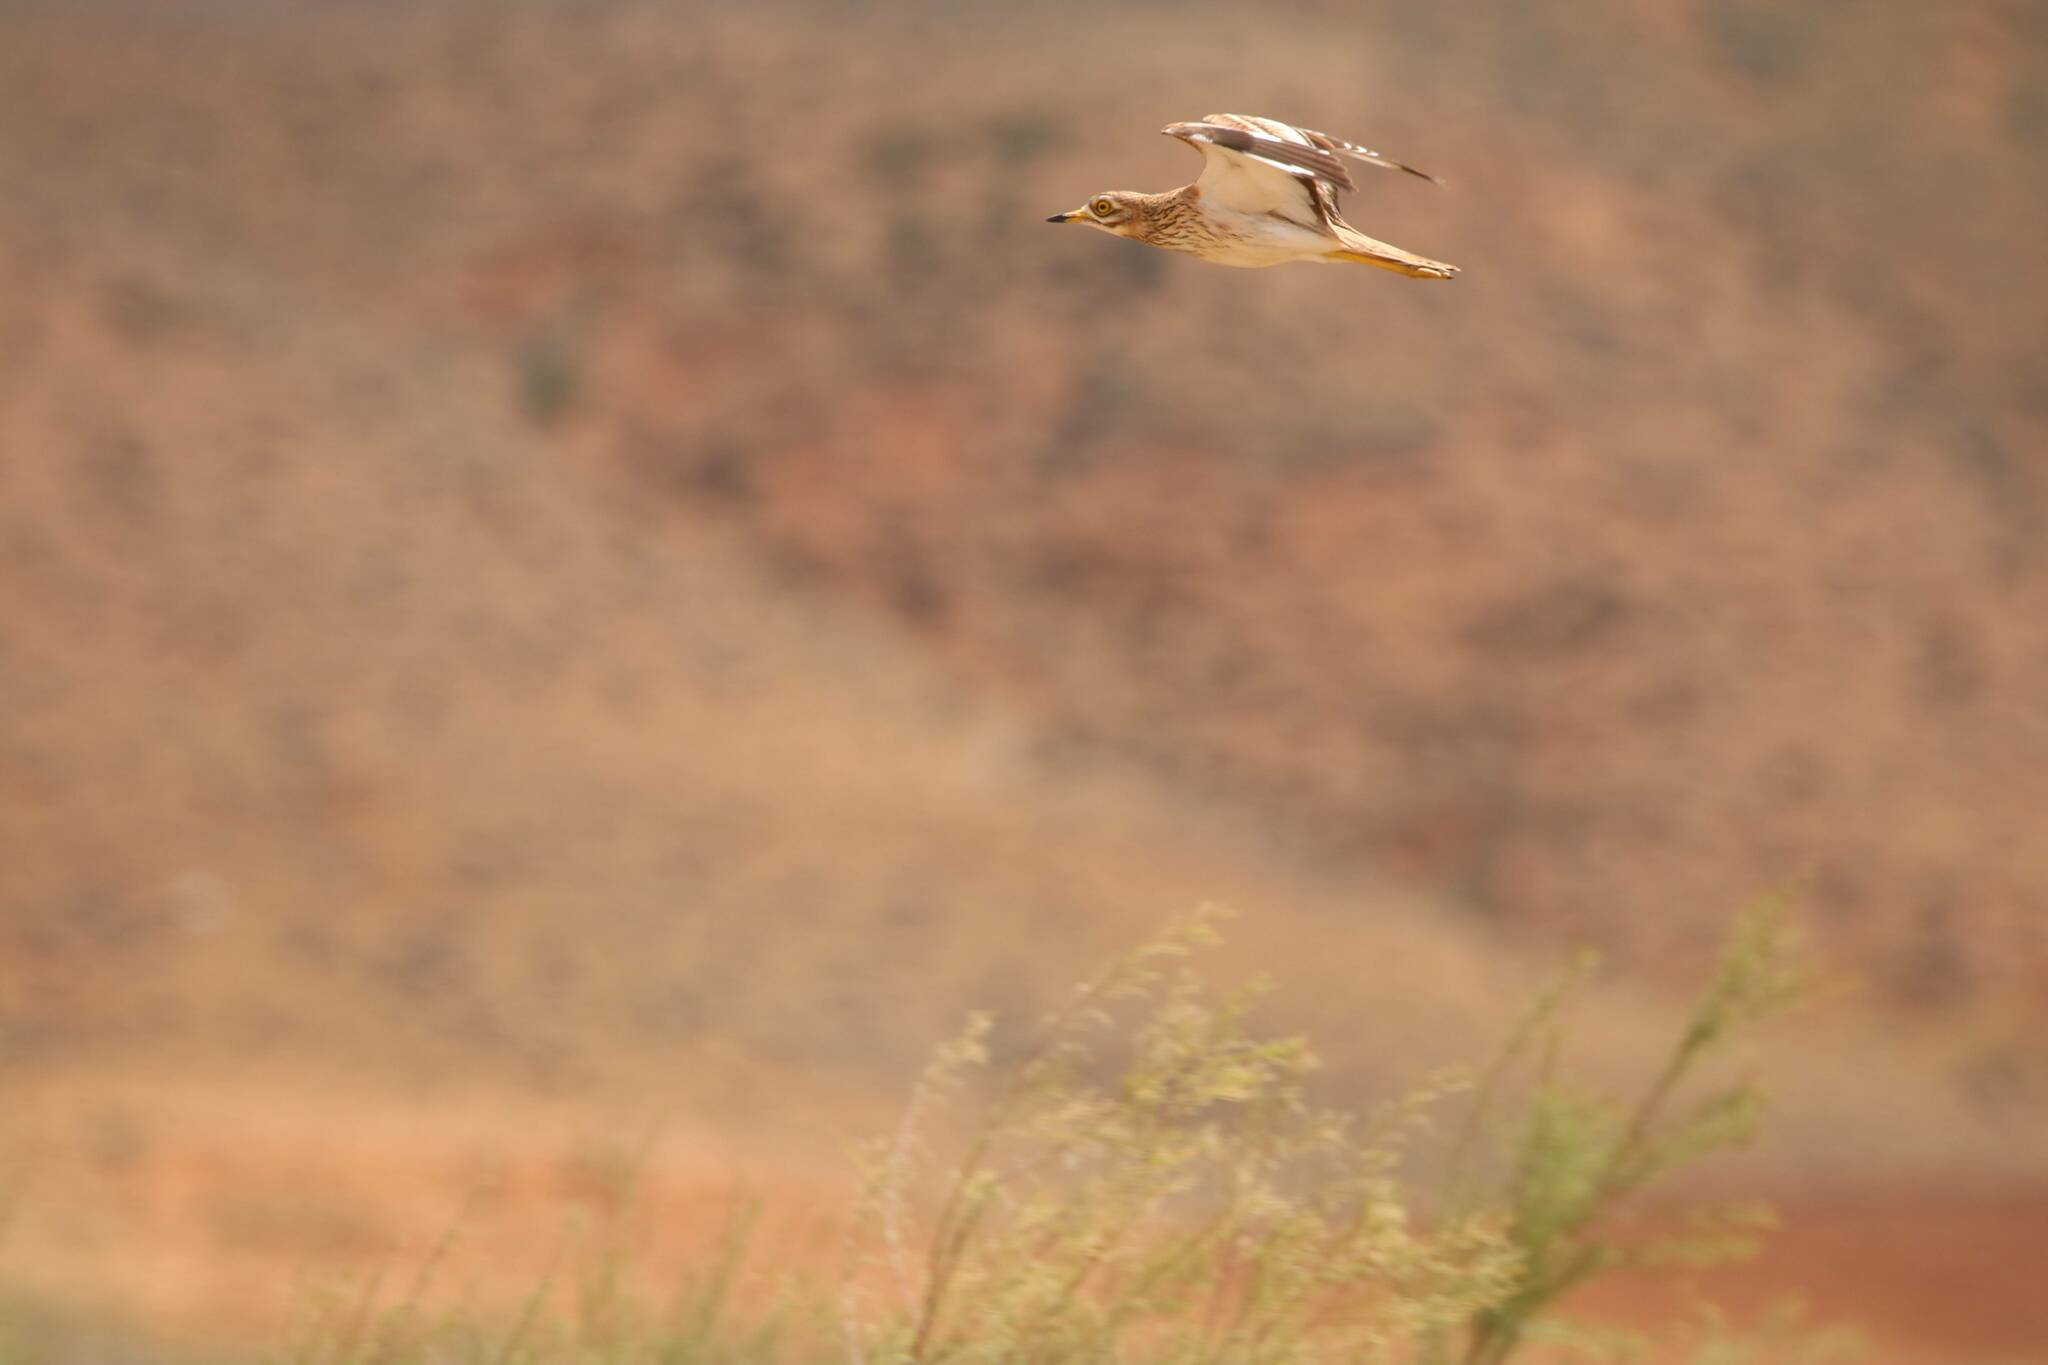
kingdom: Animalia
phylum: Chordata
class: Aves
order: Charadriiformes
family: Burhinidae
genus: Burhinus
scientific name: Burhinus oedicnemus
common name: Eurasian stone-curlew
